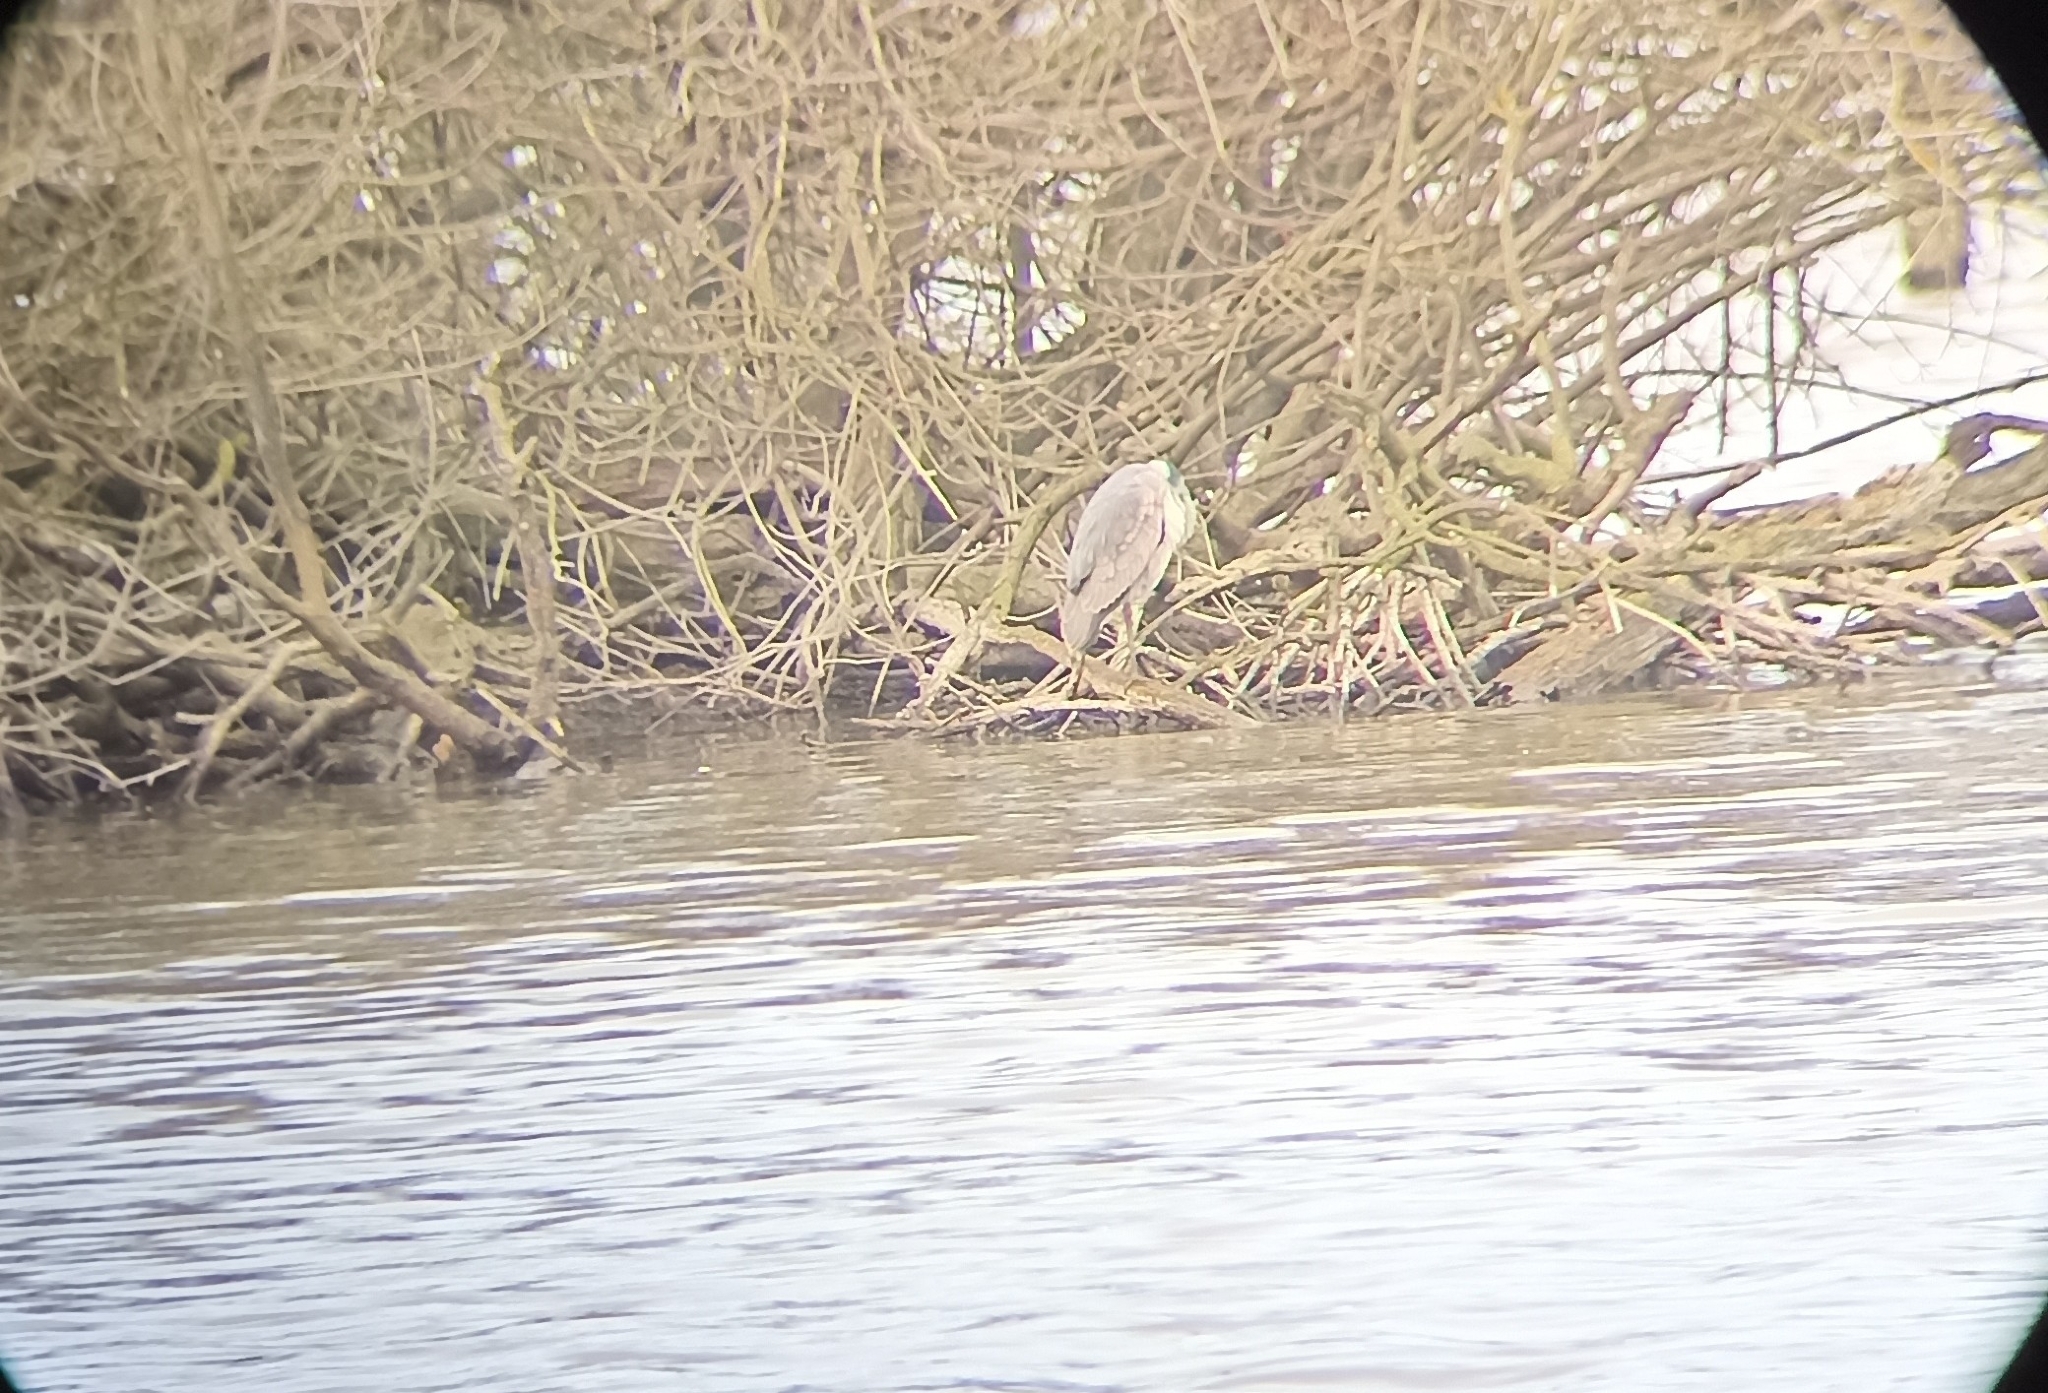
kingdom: Animalia
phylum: Chordata
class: Aves
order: Pelecaniformes
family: Ardeidae
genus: Ardea
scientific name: Ardea cinerea
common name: Grey heron
